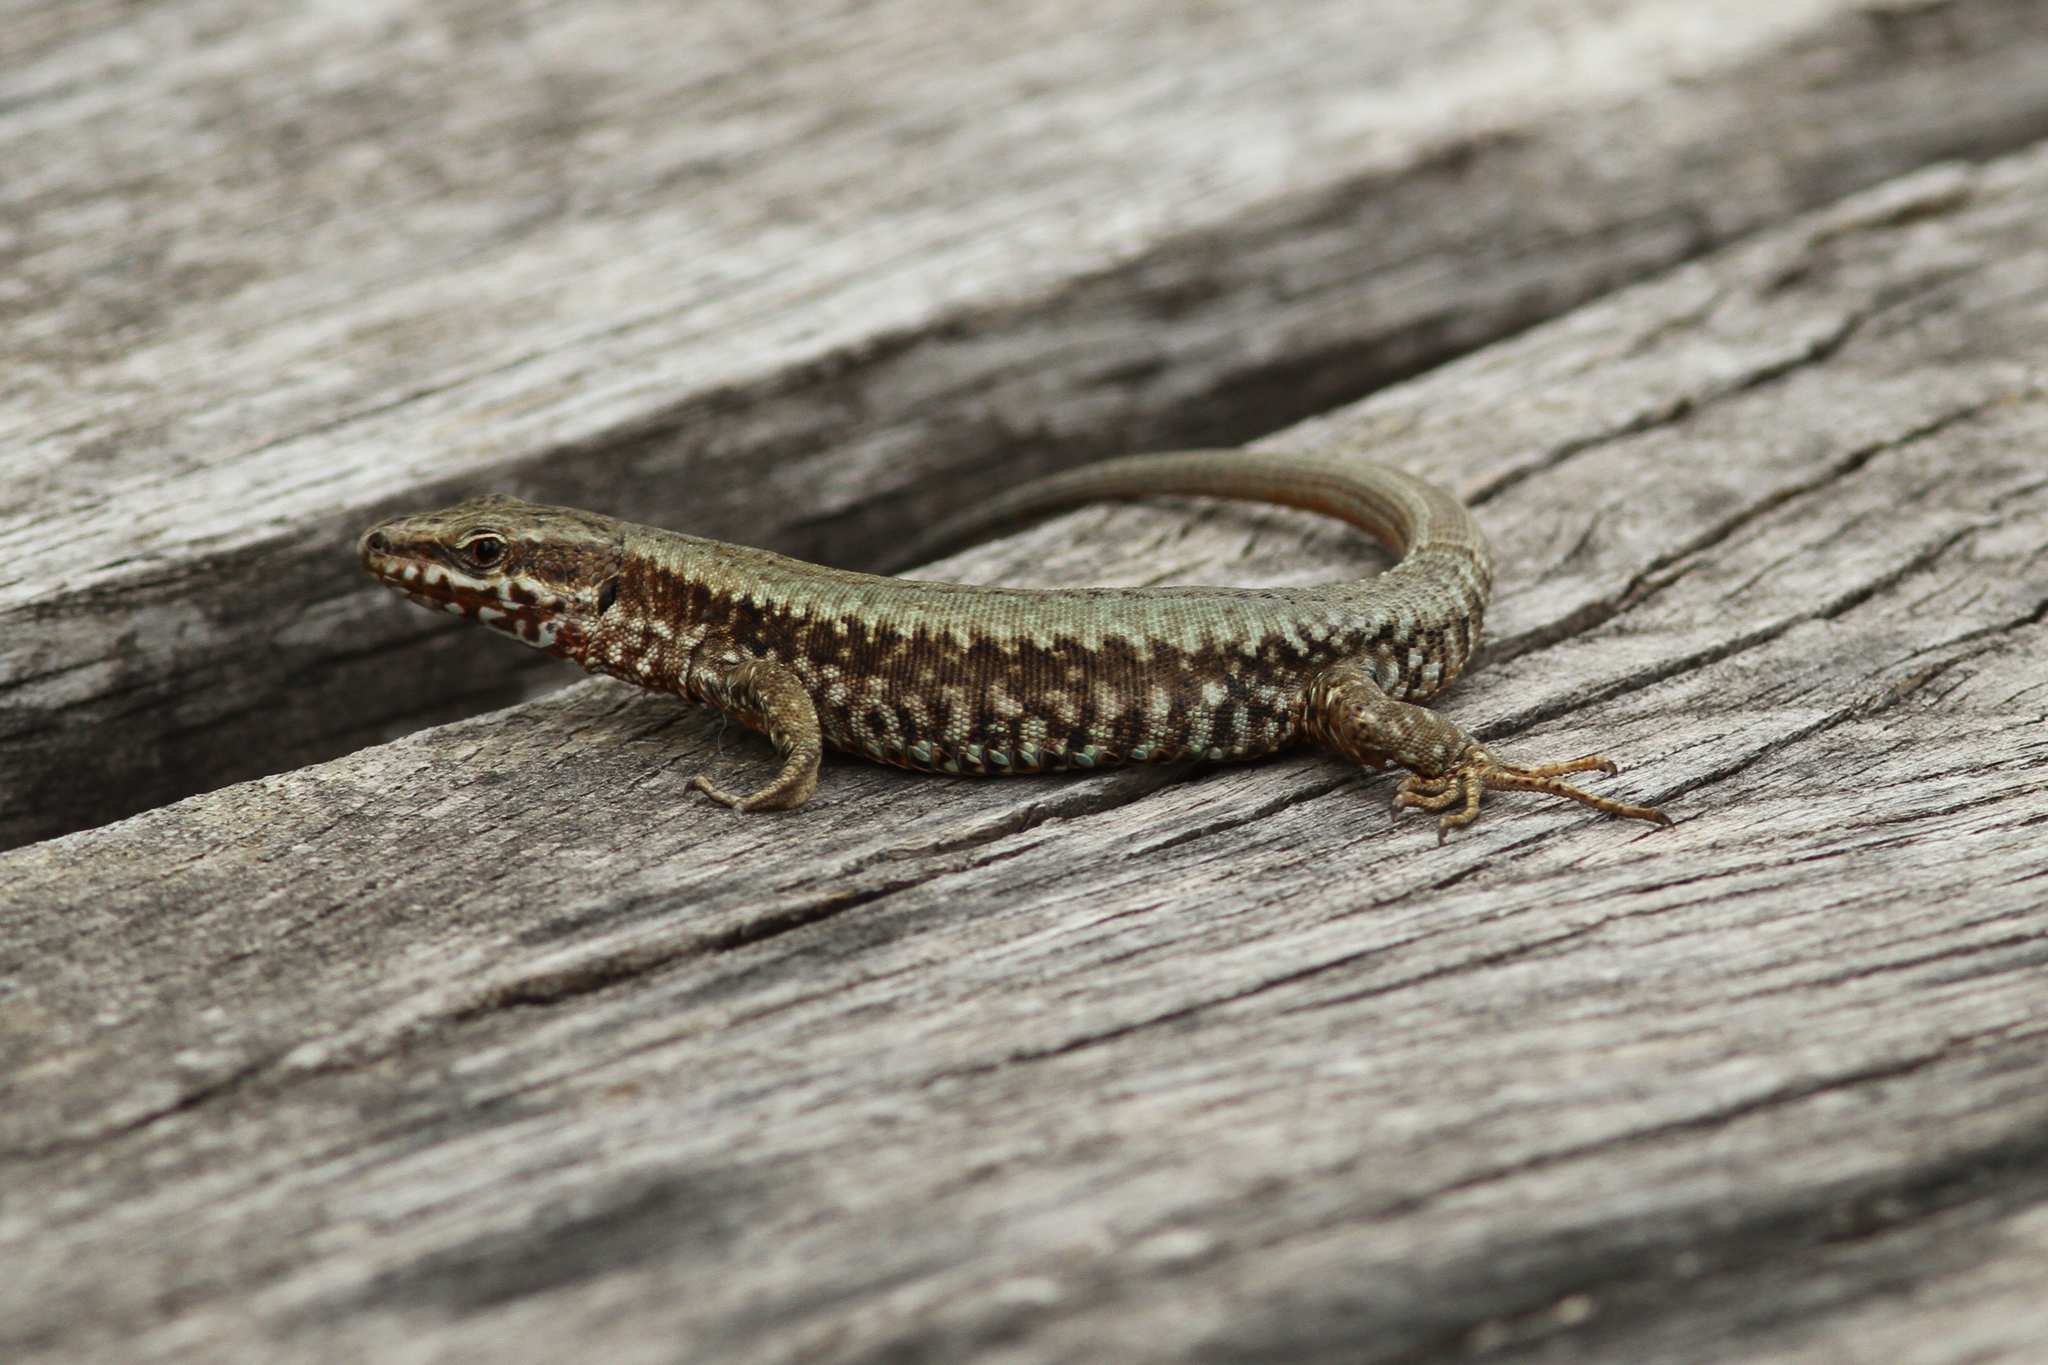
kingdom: Animalia
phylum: Chordata
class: Squamata
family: Lacertidae
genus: Podarcis
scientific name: Podarcis muralis
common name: Common wall lizard
